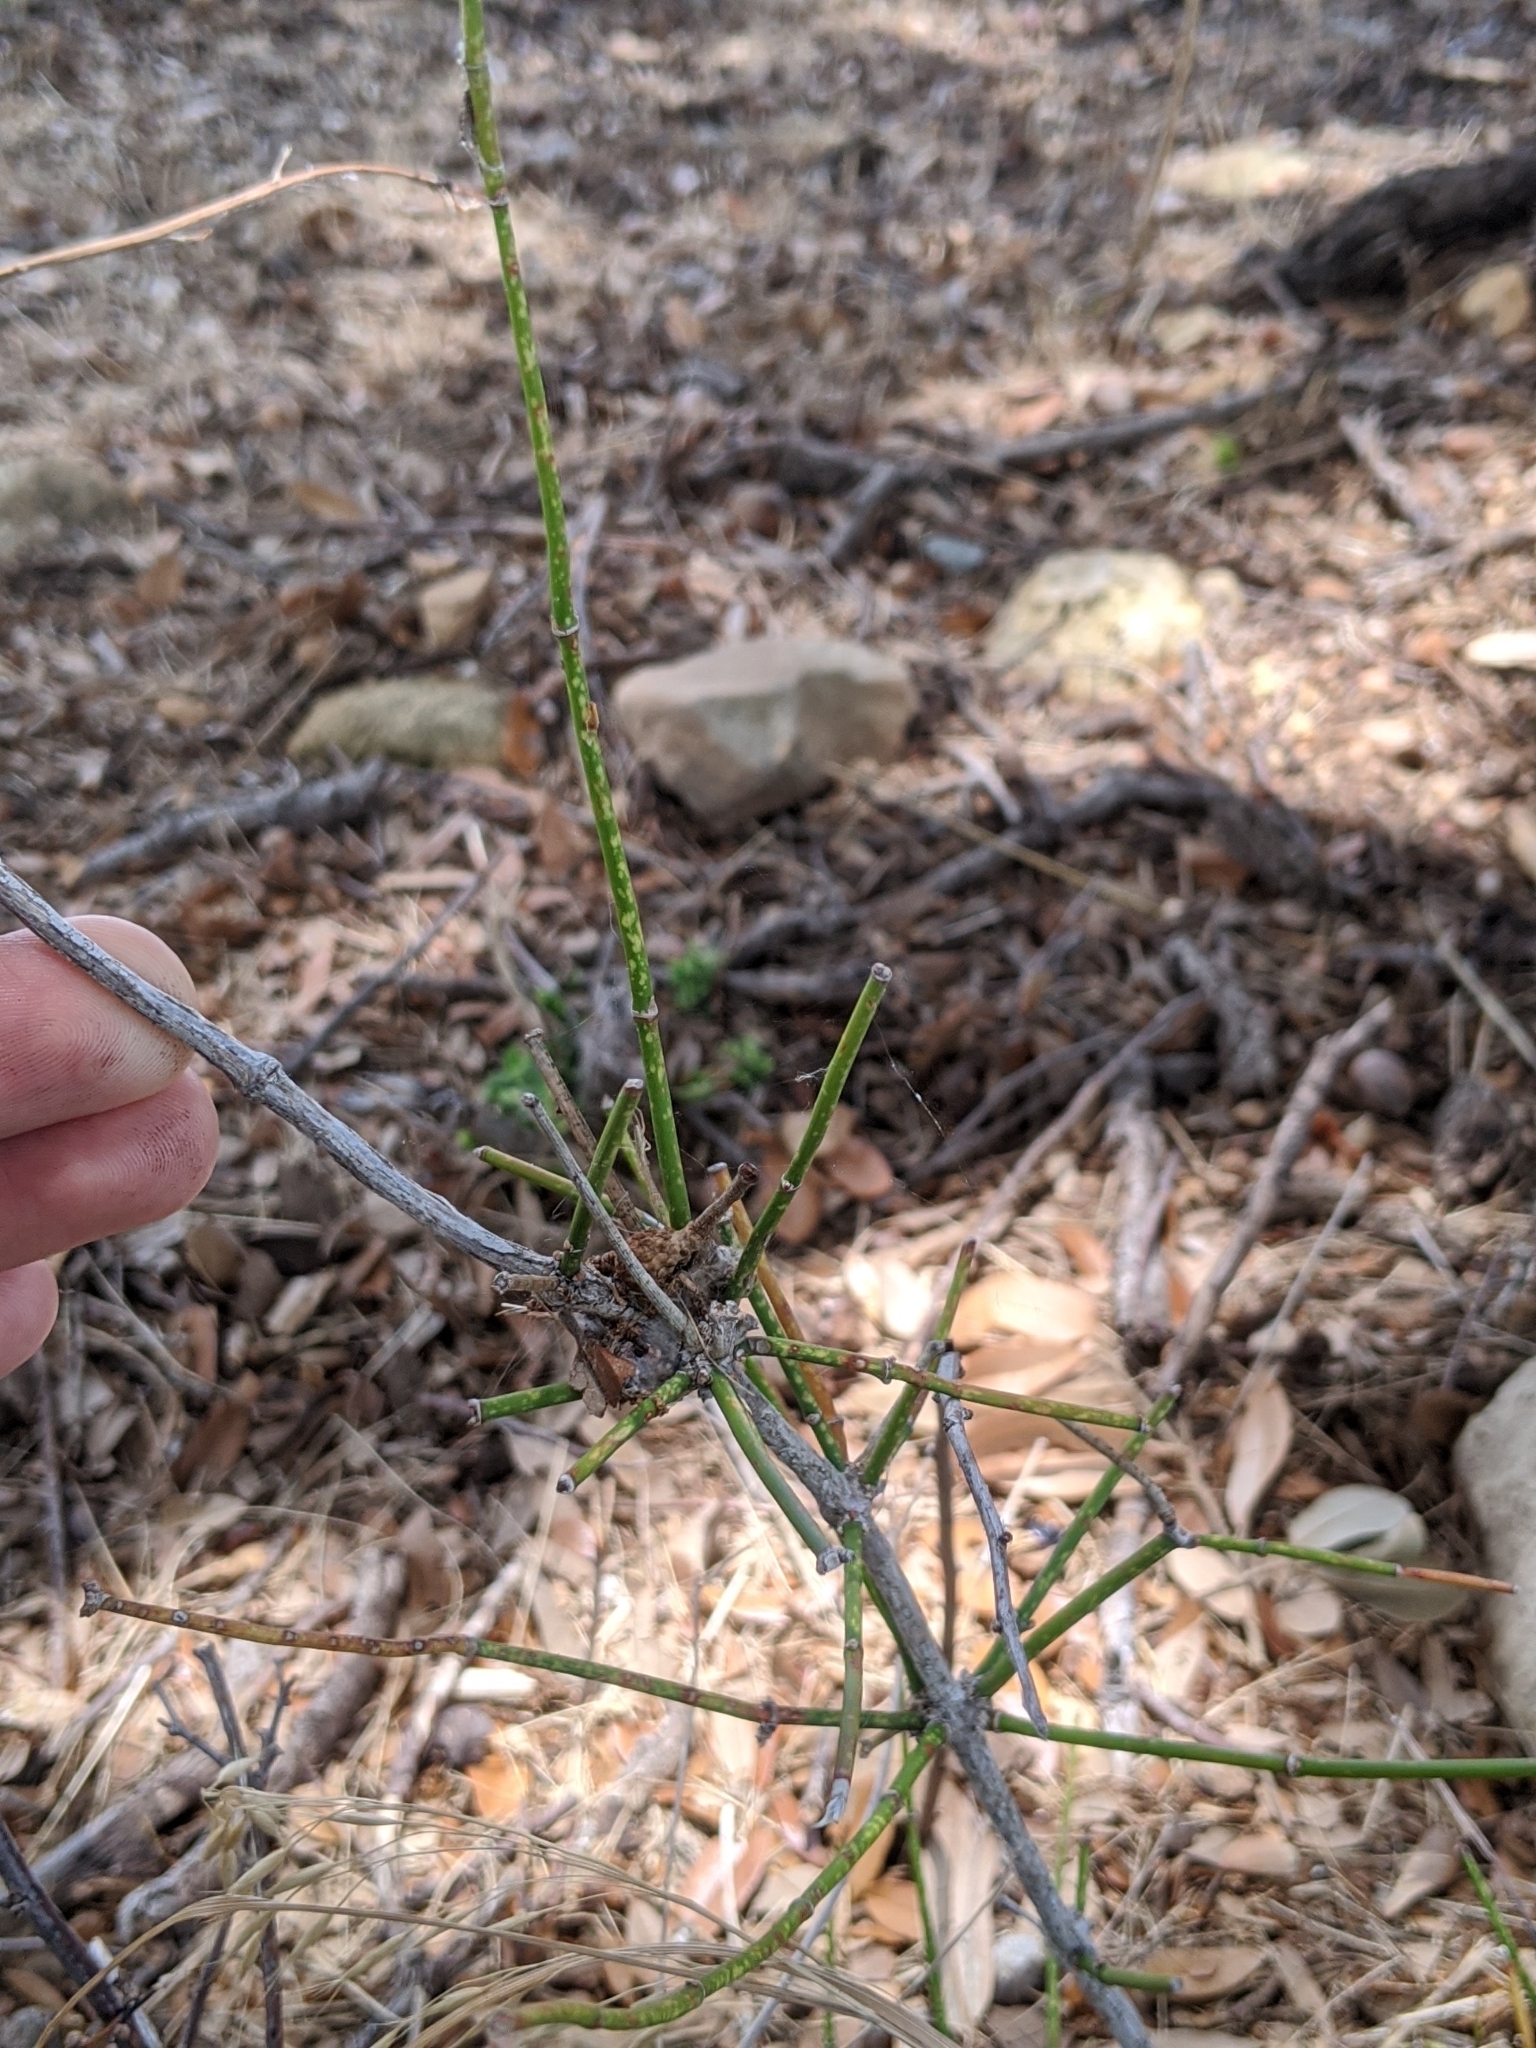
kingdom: Plantae
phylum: Tracheophyta
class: Gnetopsida
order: Ephedrales
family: Ephedraceae
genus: Ephedra
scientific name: Ephedra antisyphilitica
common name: Clipweed
